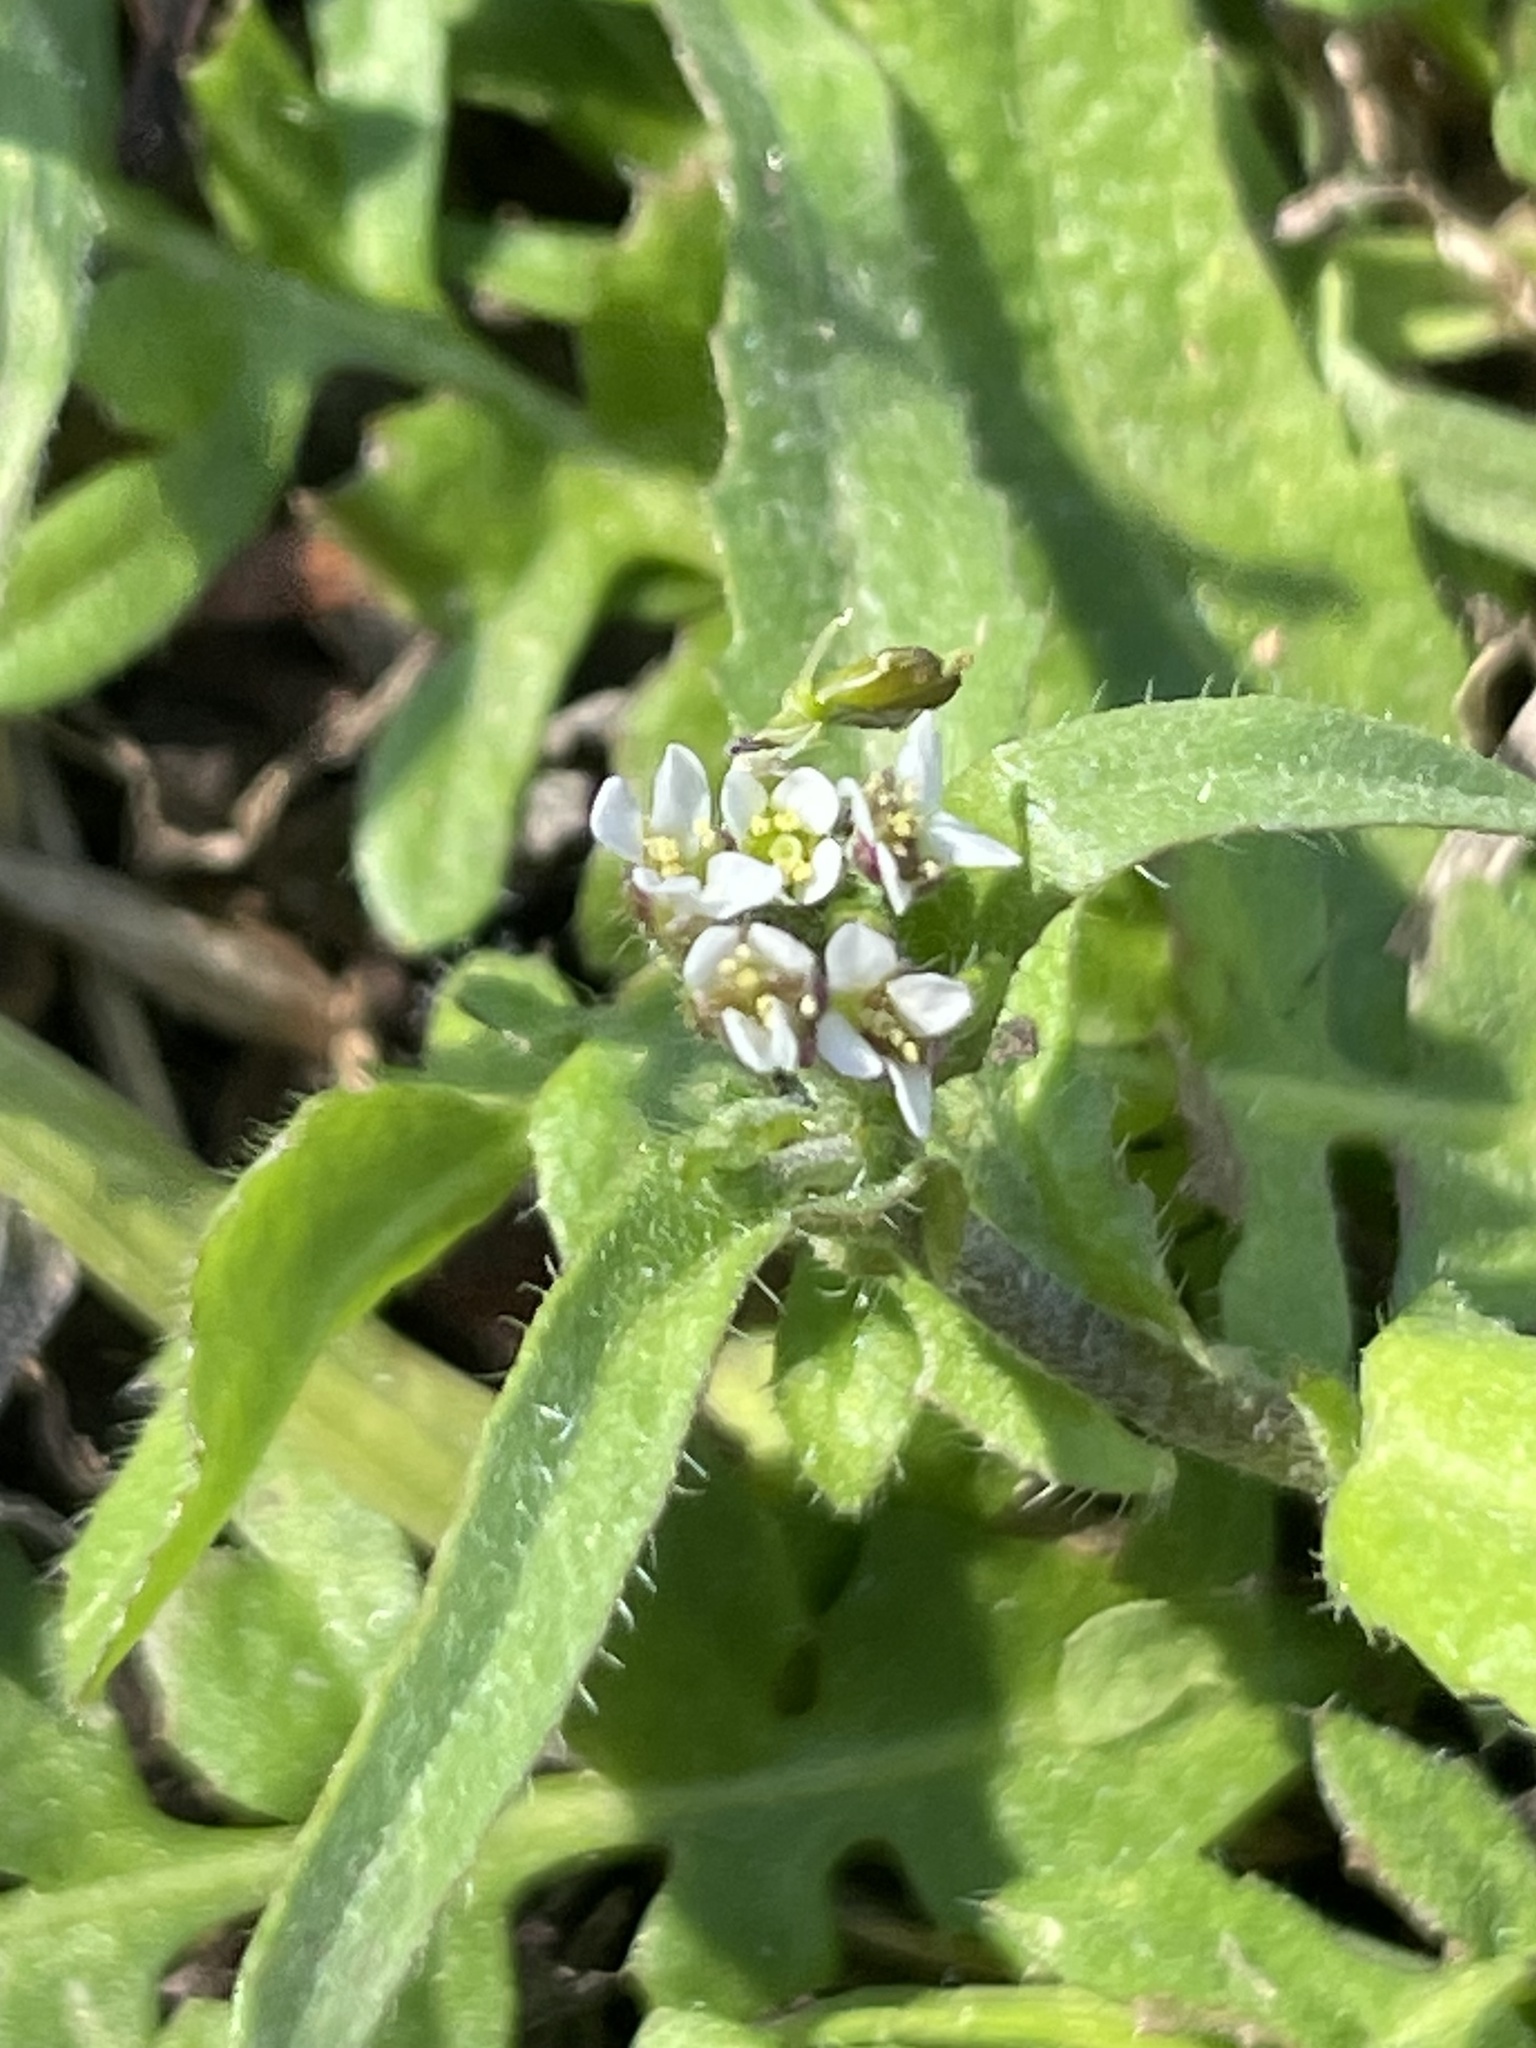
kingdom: Plantae
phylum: Tracheophyta
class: Magnoliopsida
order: Brassicales
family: Brassicaceae
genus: Capsella
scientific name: Capsella bursa-pastoris
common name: Shepherd's purse
